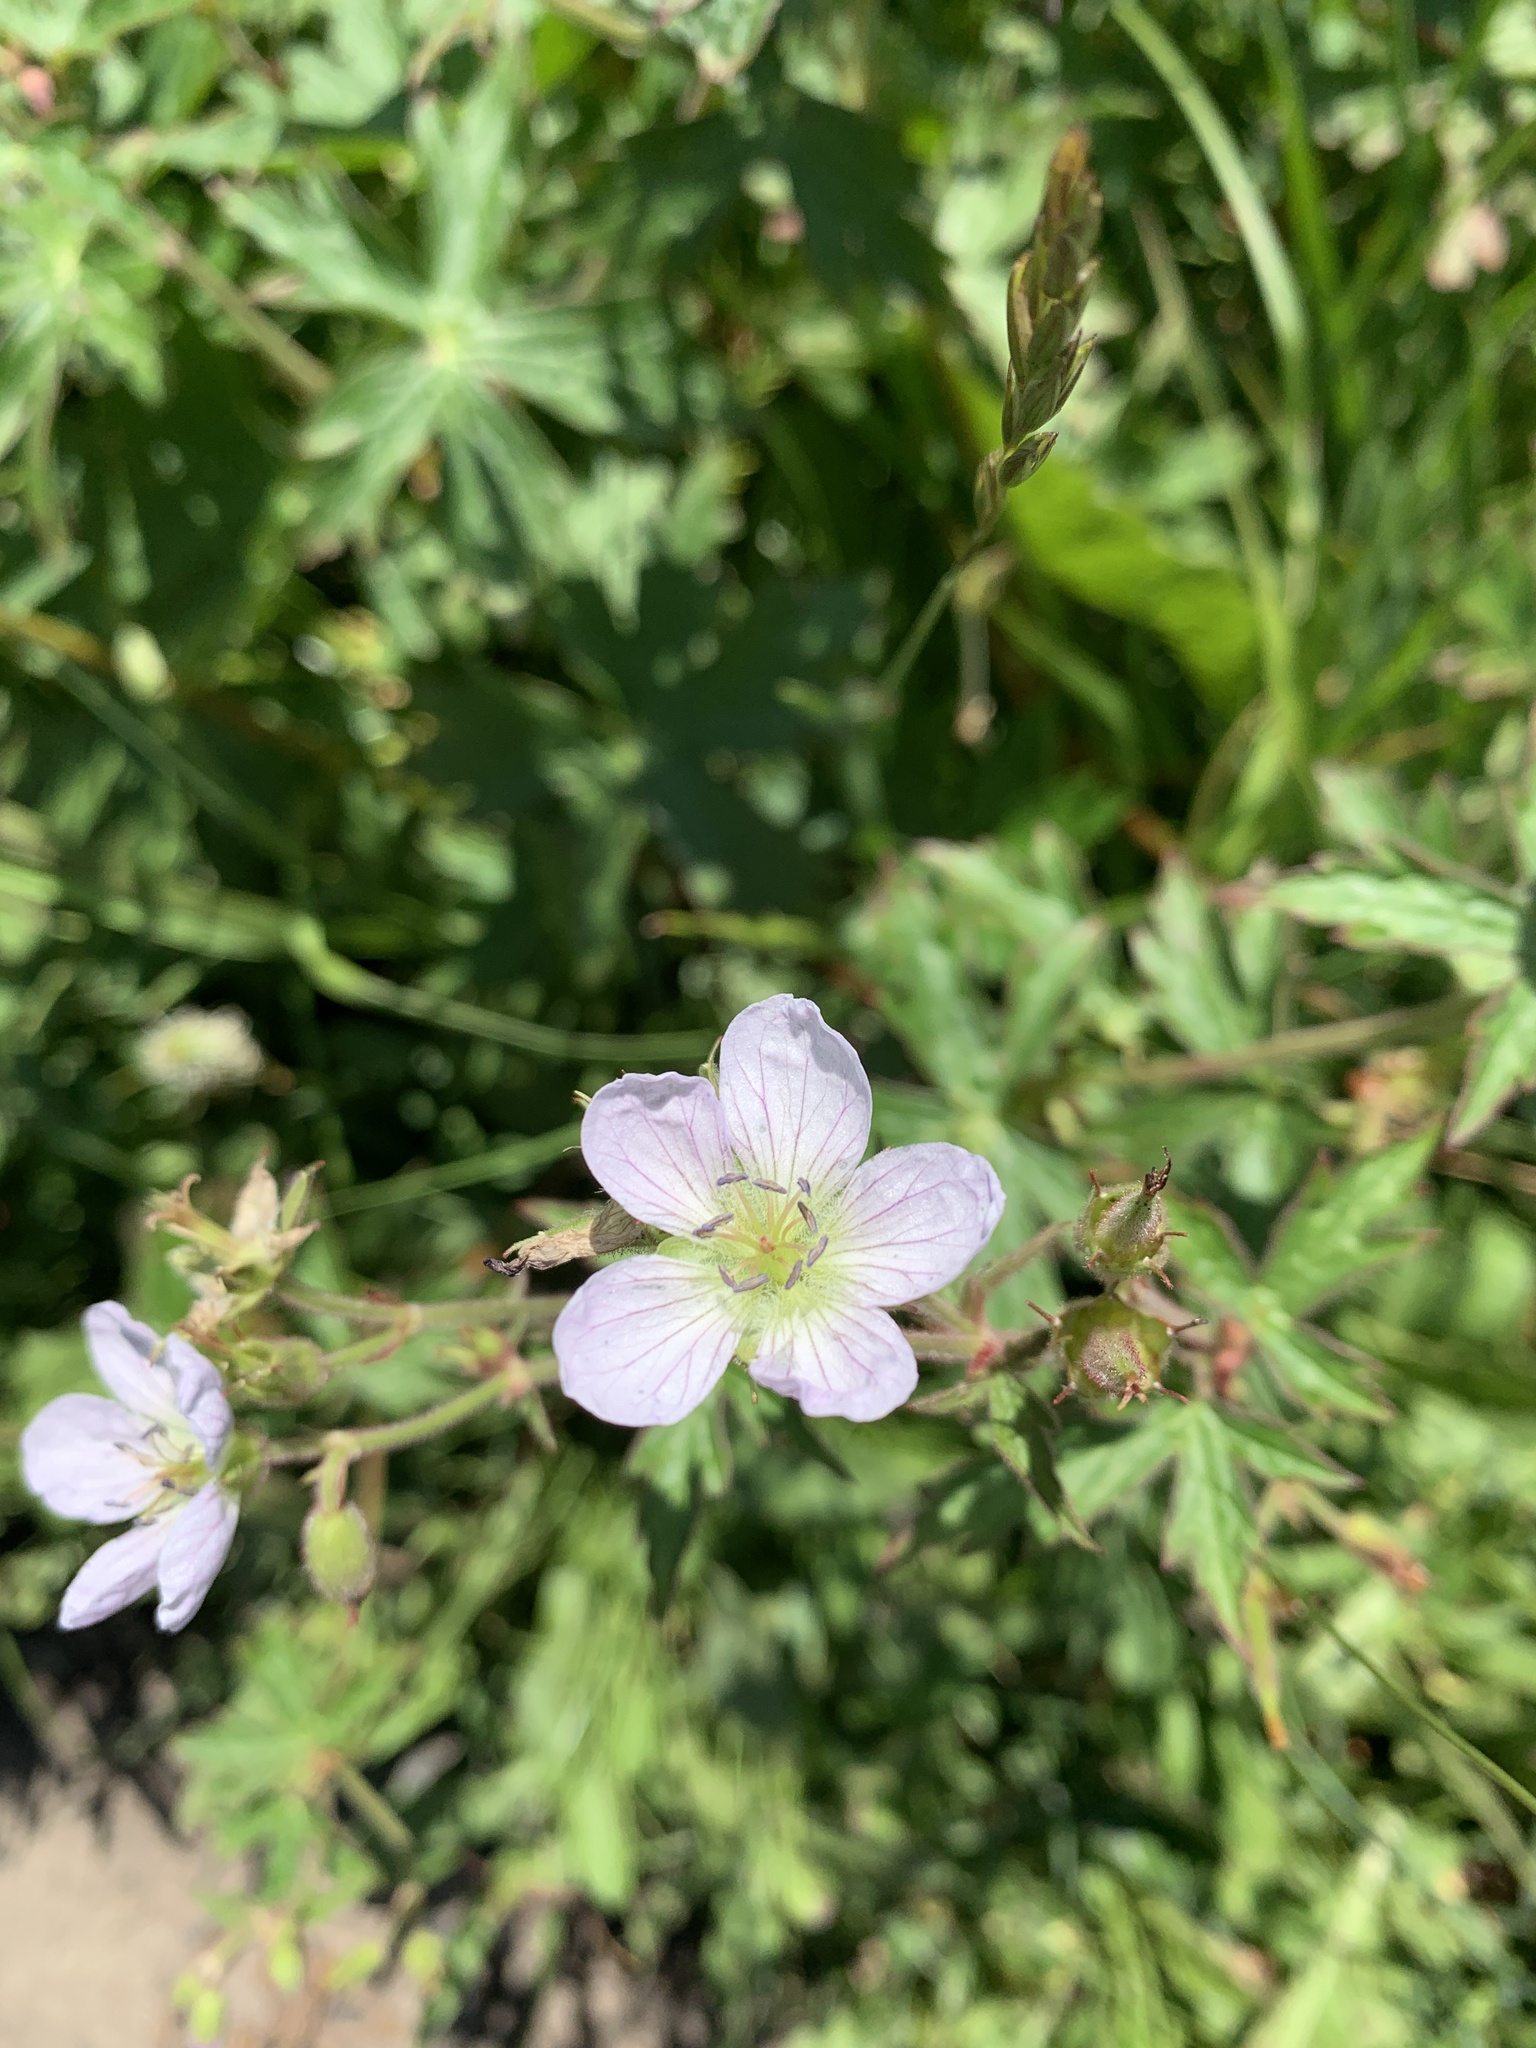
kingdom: Plantae
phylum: Tracheophyta
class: Magnoliopsida
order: Geraniales
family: Geraniaceae
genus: Geranium
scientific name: Geranium richardsonii
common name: Richardson's crane's-bill
